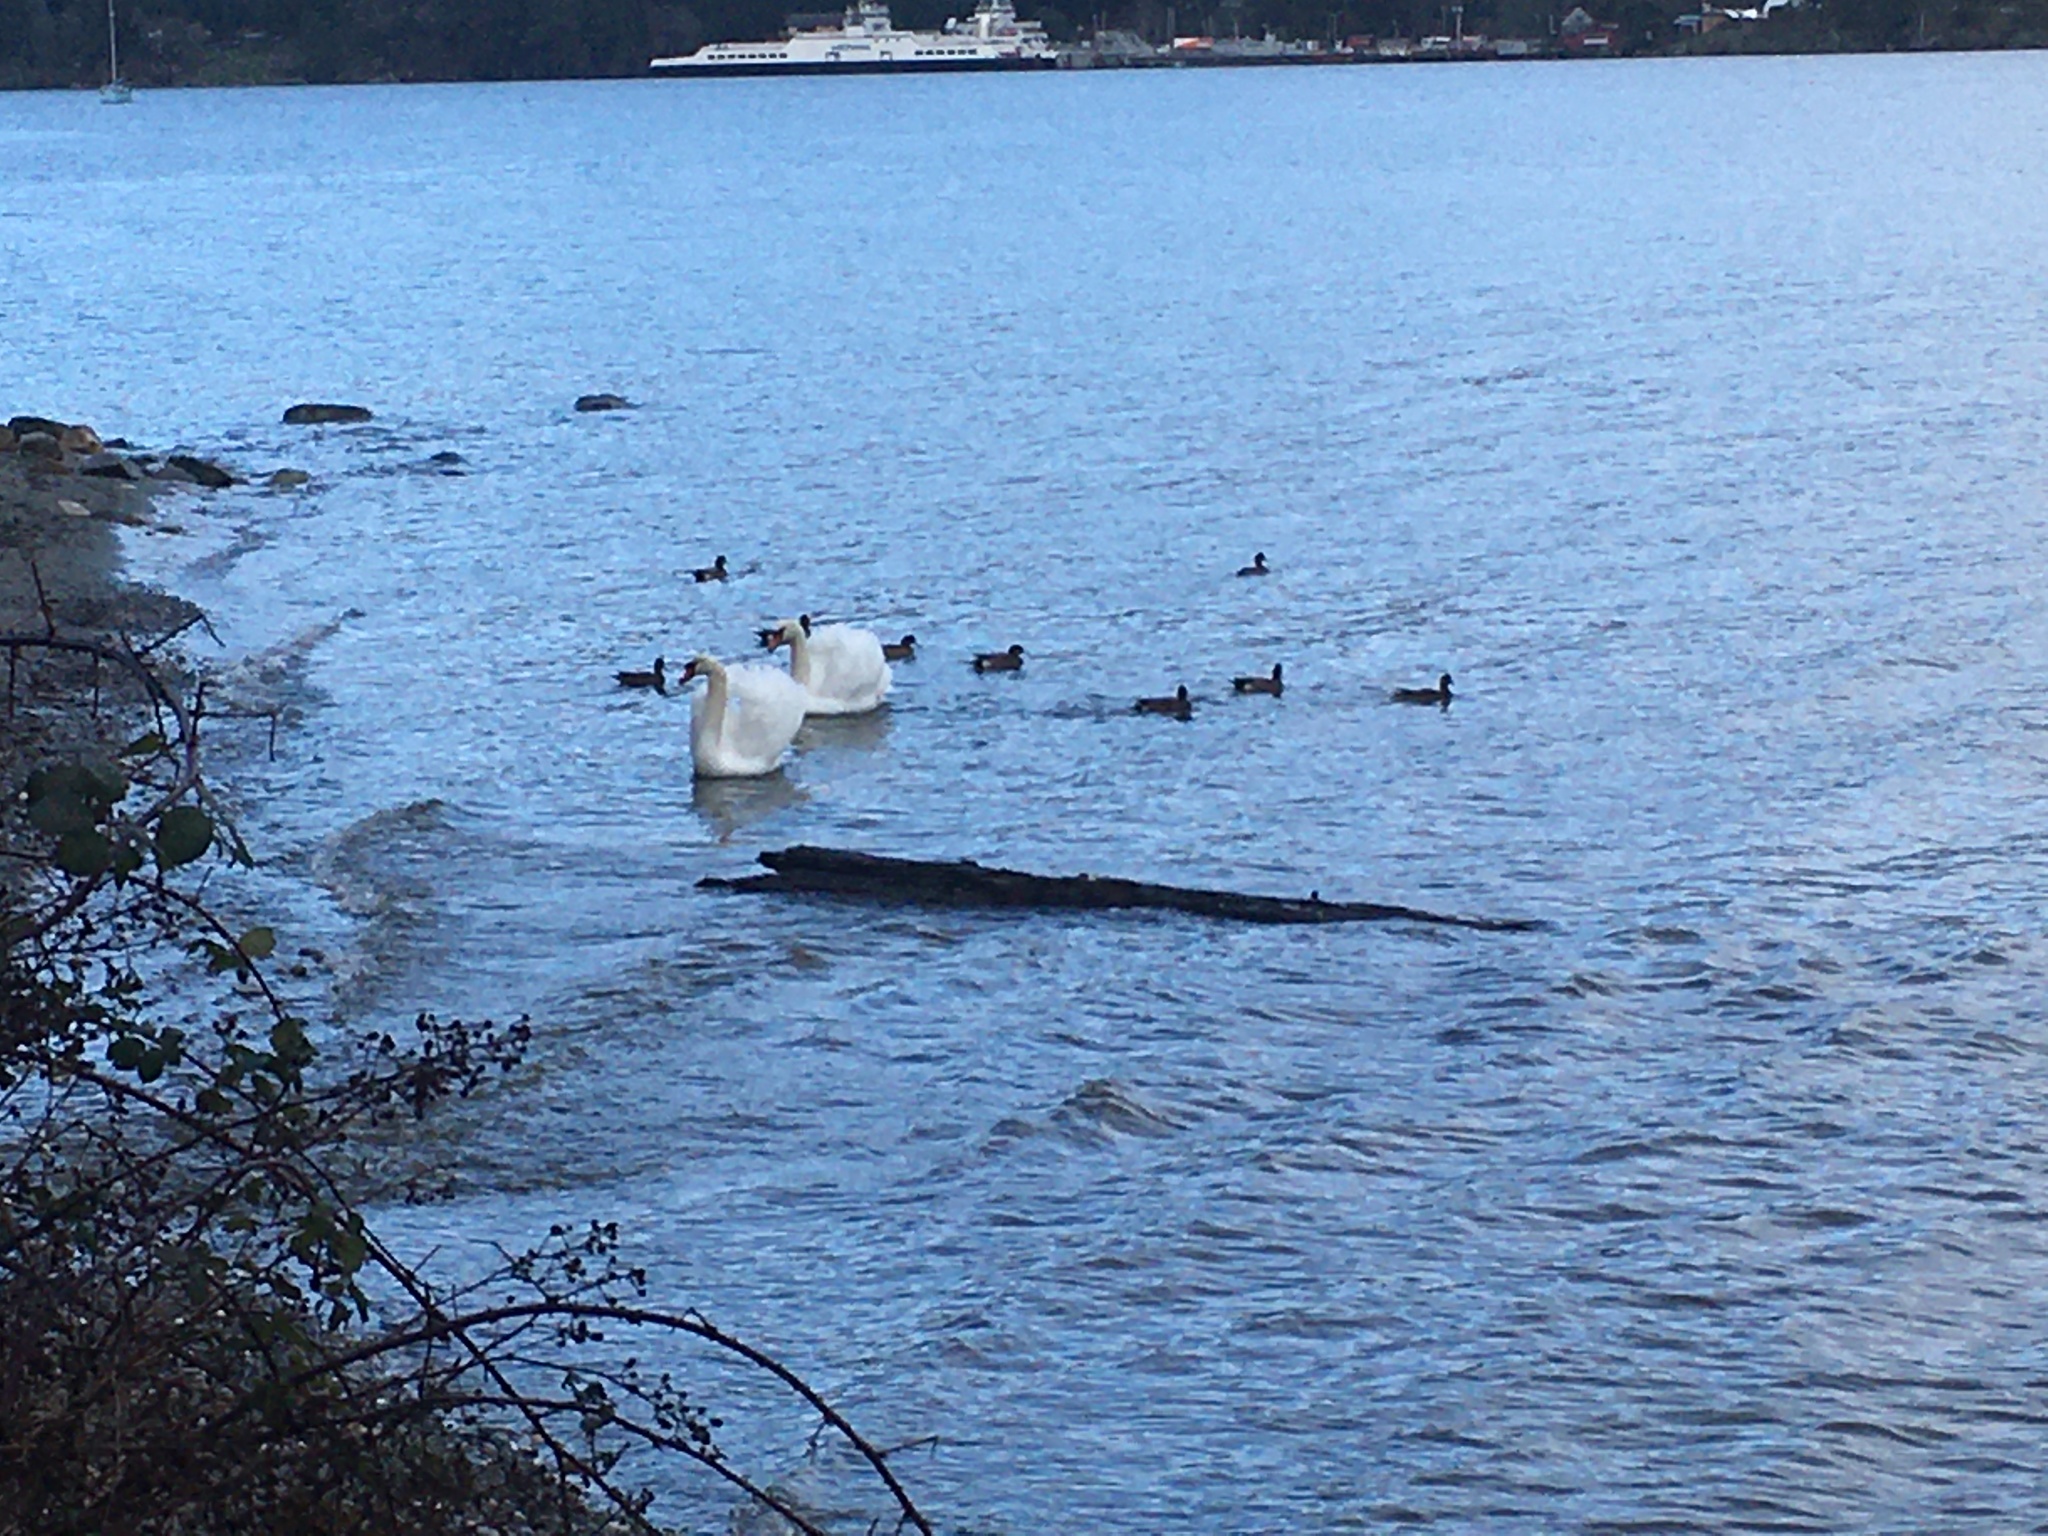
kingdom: Animalia
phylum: Chordata
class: Aves
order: Anseriformes
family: Anatidae
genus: Cygnus
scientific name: Cygnus olor
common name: Mute swan
